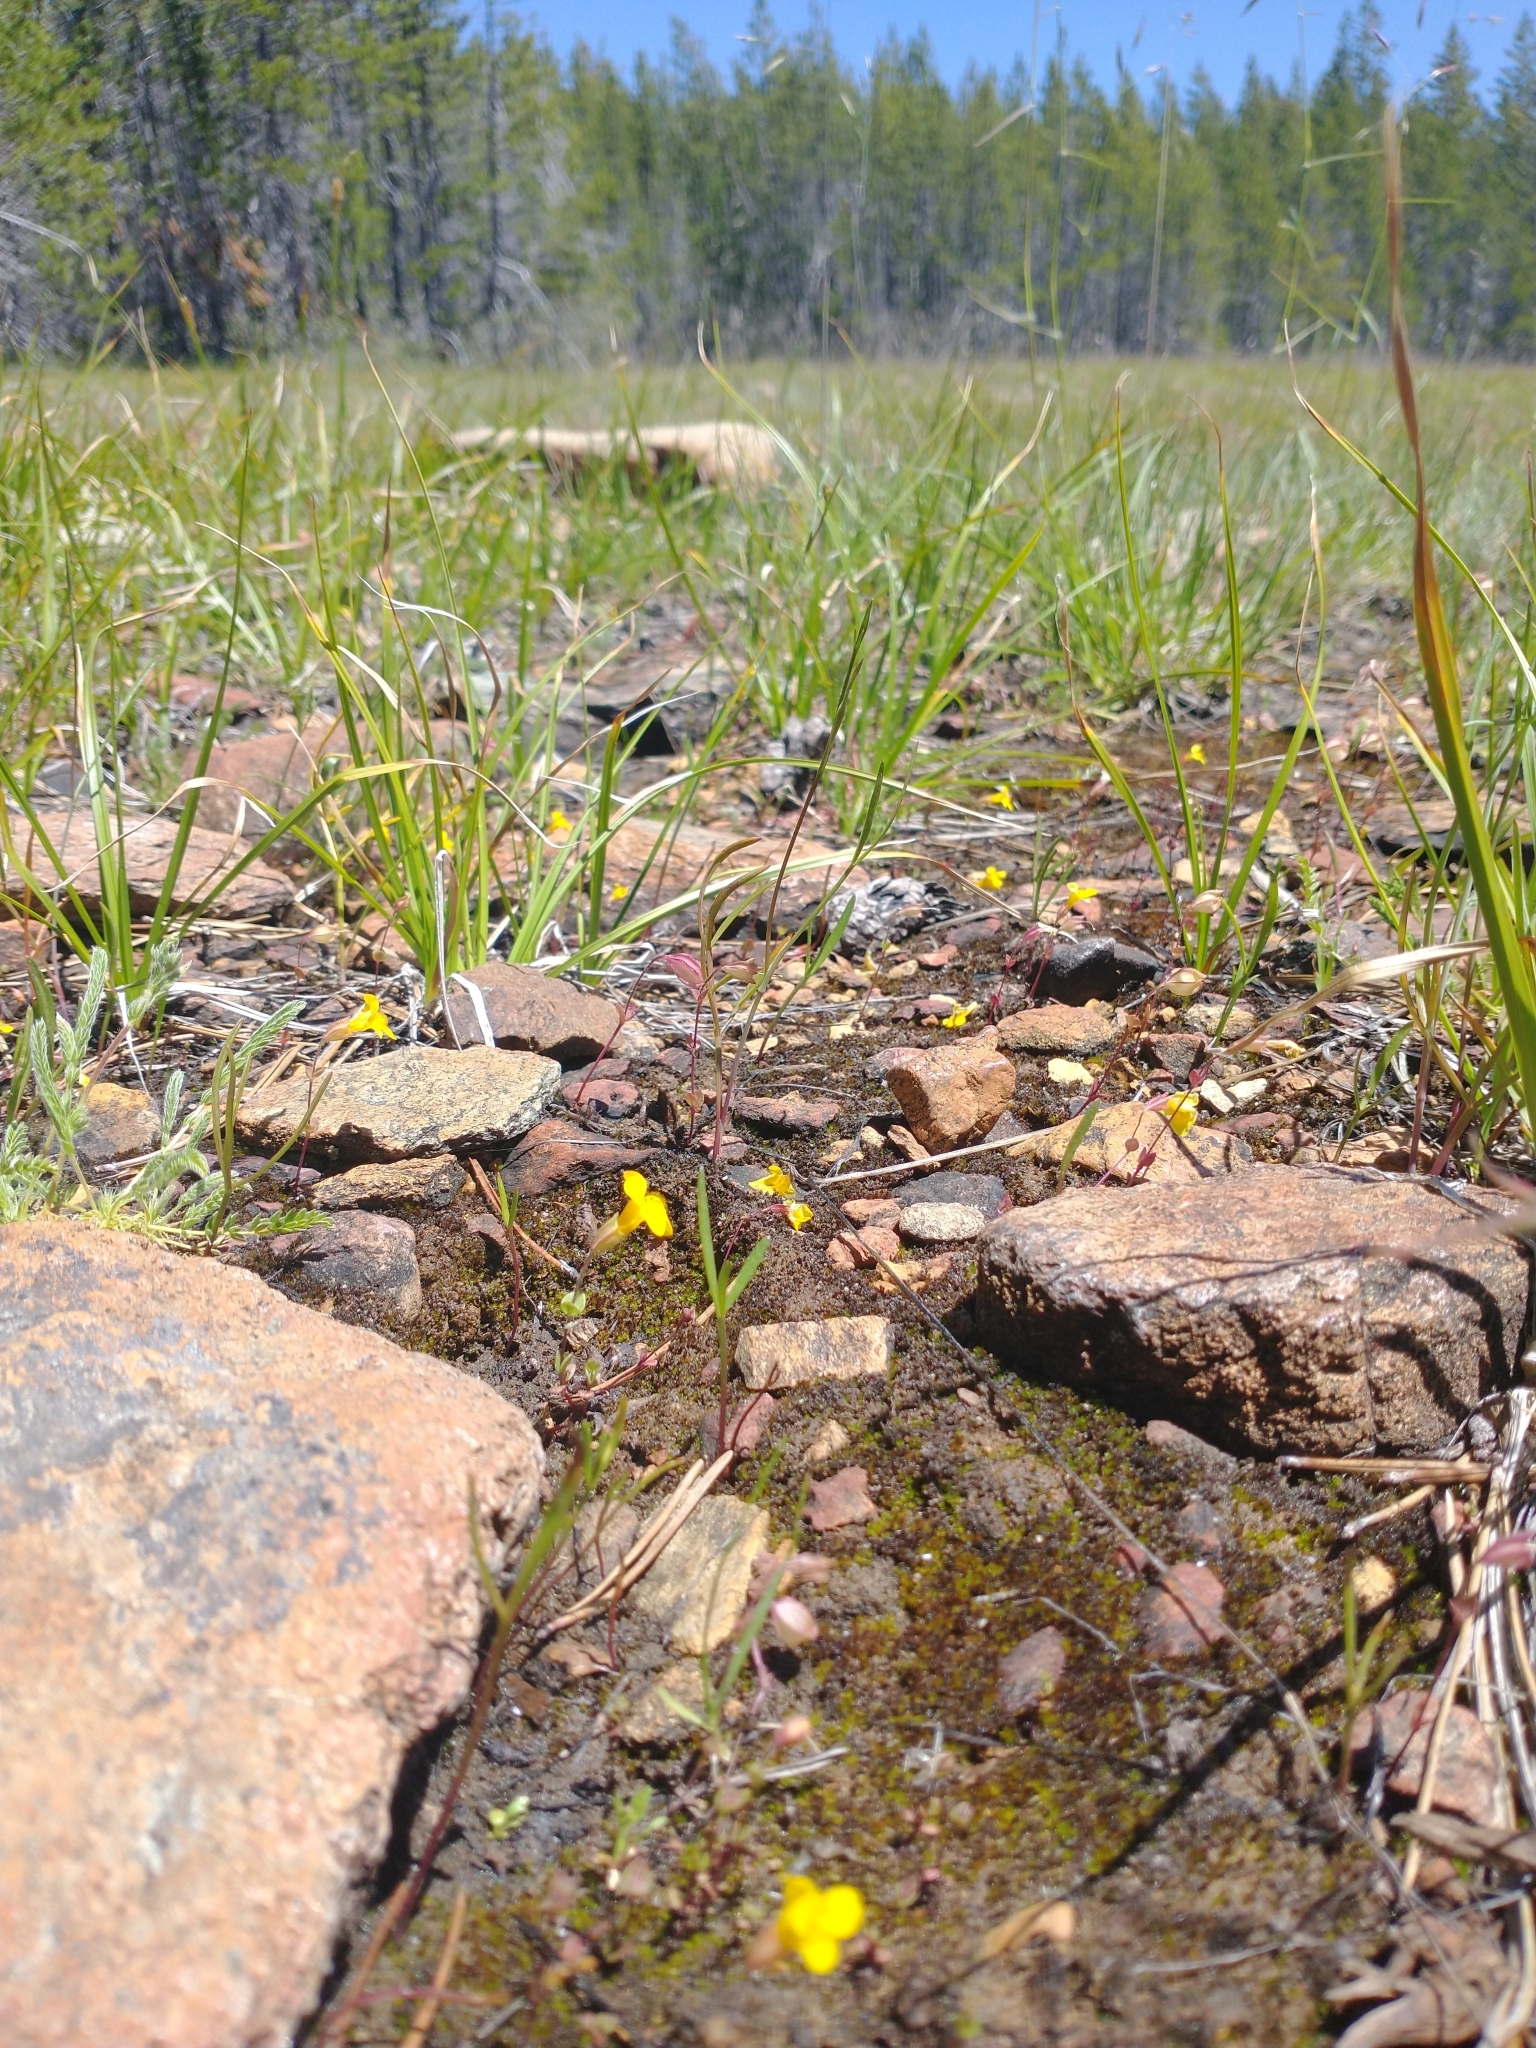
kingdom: Plantae
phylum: Tracheophyta
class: Magnoliopsida
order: Lamiales
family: Phrymaceae
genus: Erythranthe
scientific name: Erythranthe microphylla
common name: Bentham's monkeyflower
